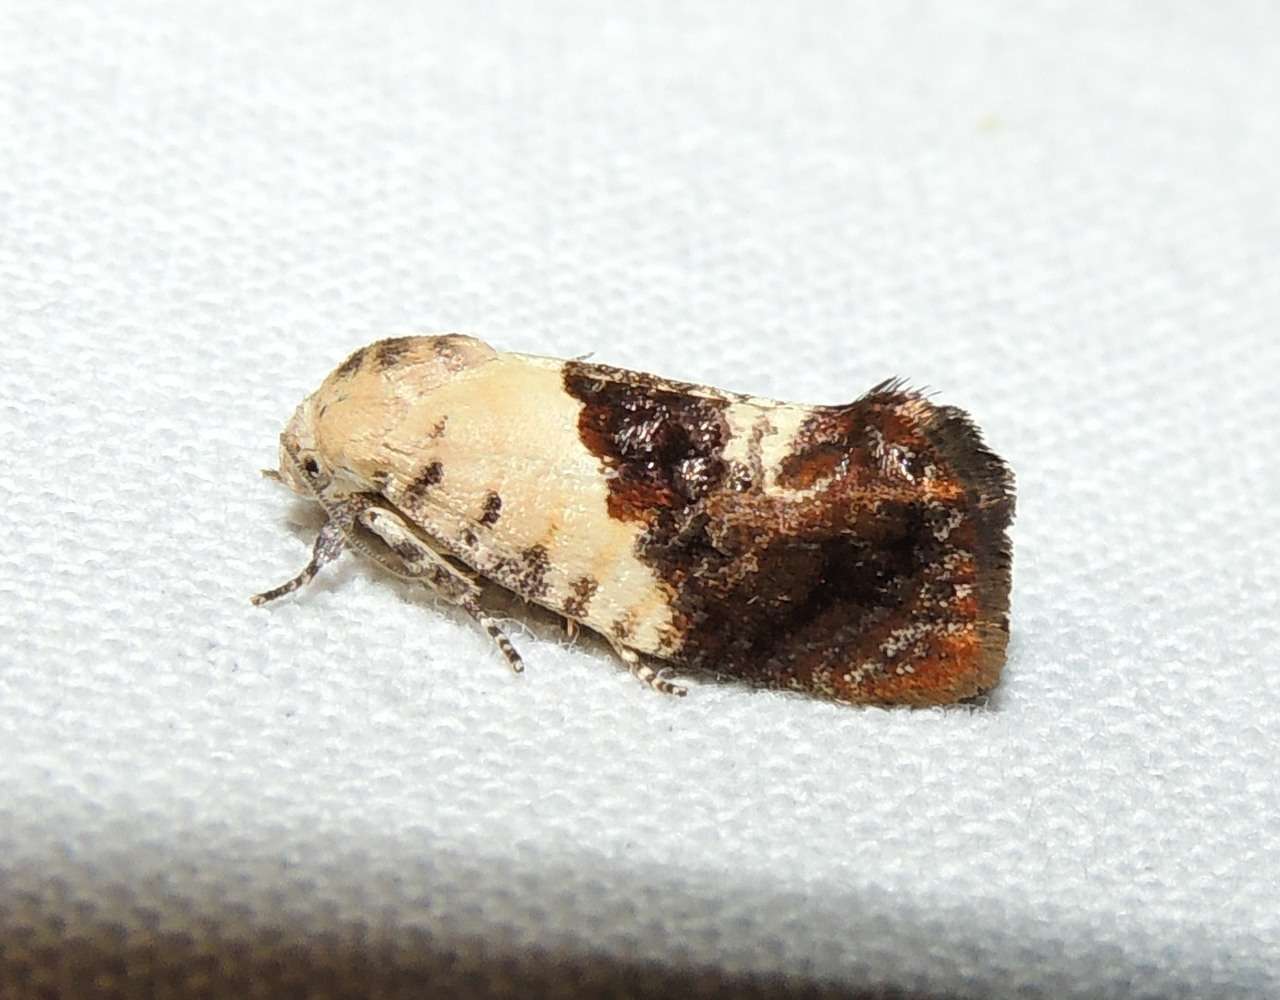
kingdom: Animalia
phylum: Arthropoda
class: Insecta
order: Lepidoptera
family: Depressariidae
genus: Hypertropha
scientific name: Hypertropha chlaenota
